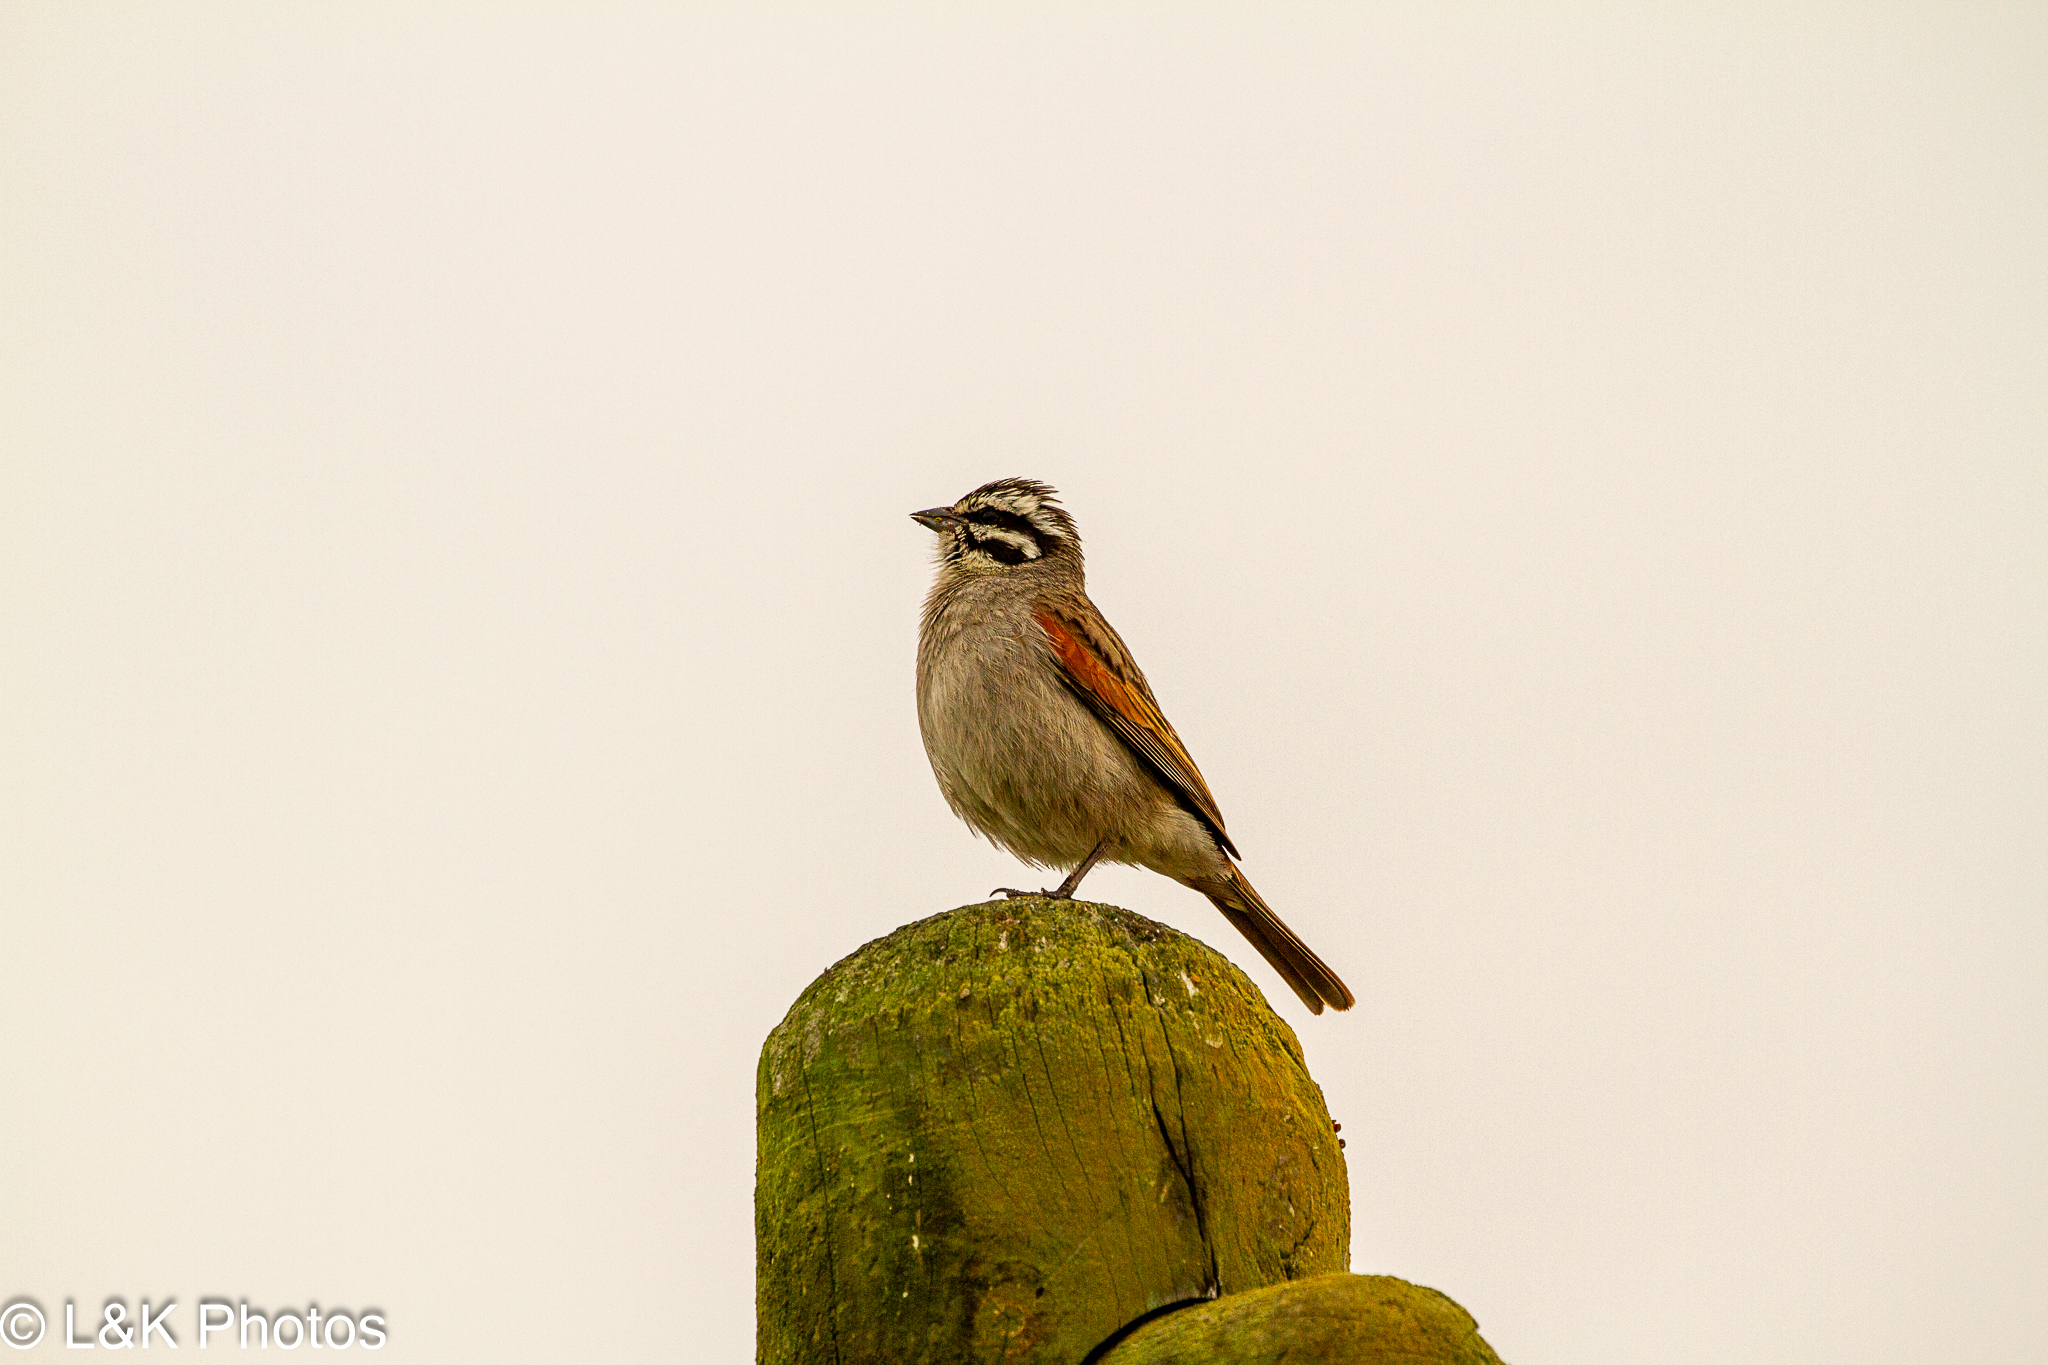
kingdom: Animalia
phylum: Chordata
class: Aves
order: Passeriformes
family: Emberizidae
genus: Emberiza
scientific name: Emberiza capensis
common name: Cape bunting
